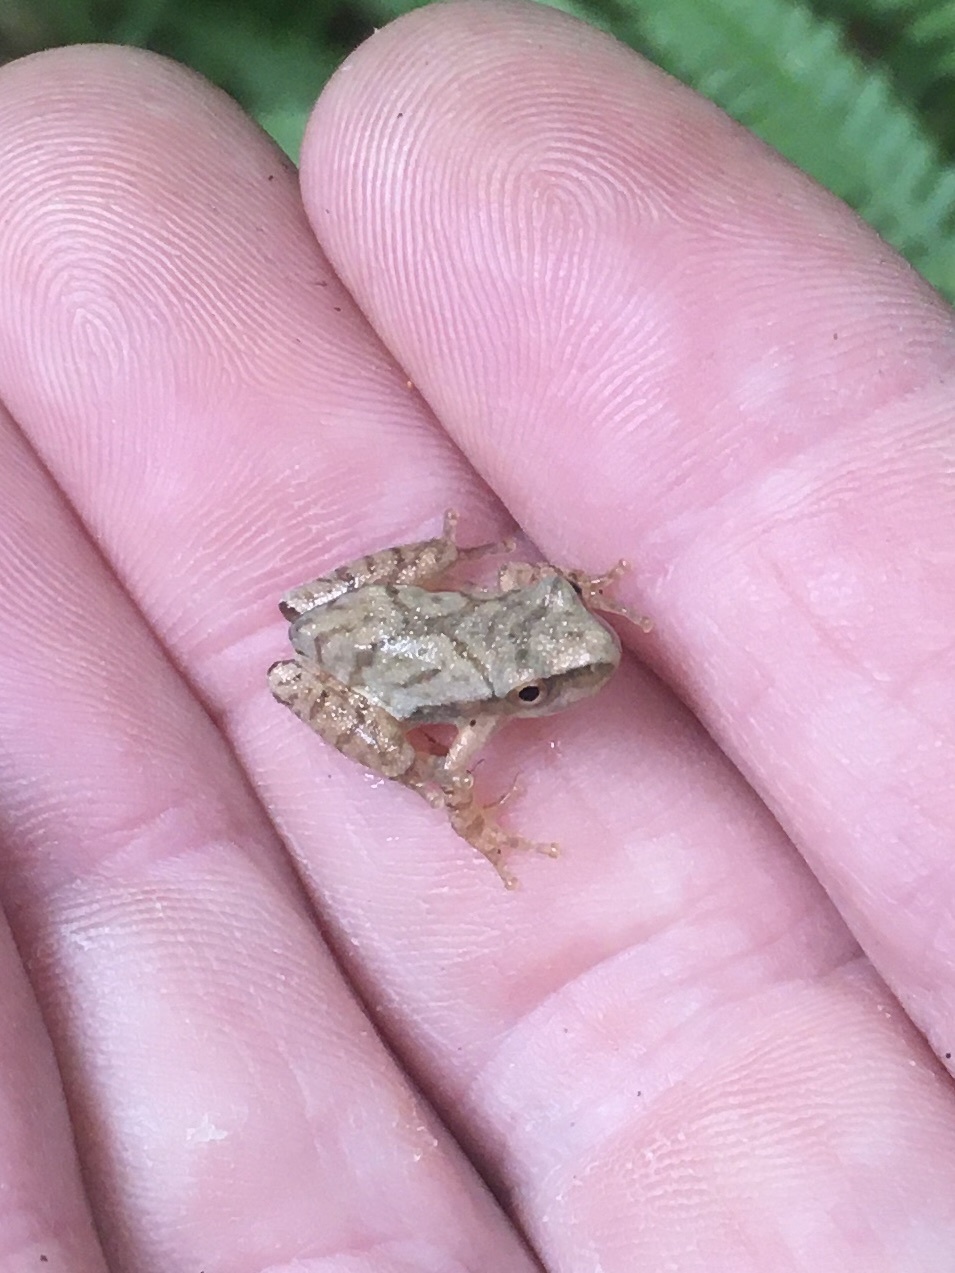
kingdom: Animalia
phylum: Chordata
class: Amphibia
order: Anura
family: Hylidae
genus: Pseudacris
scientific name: Pseudacris crucifer
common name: Spring peeper
